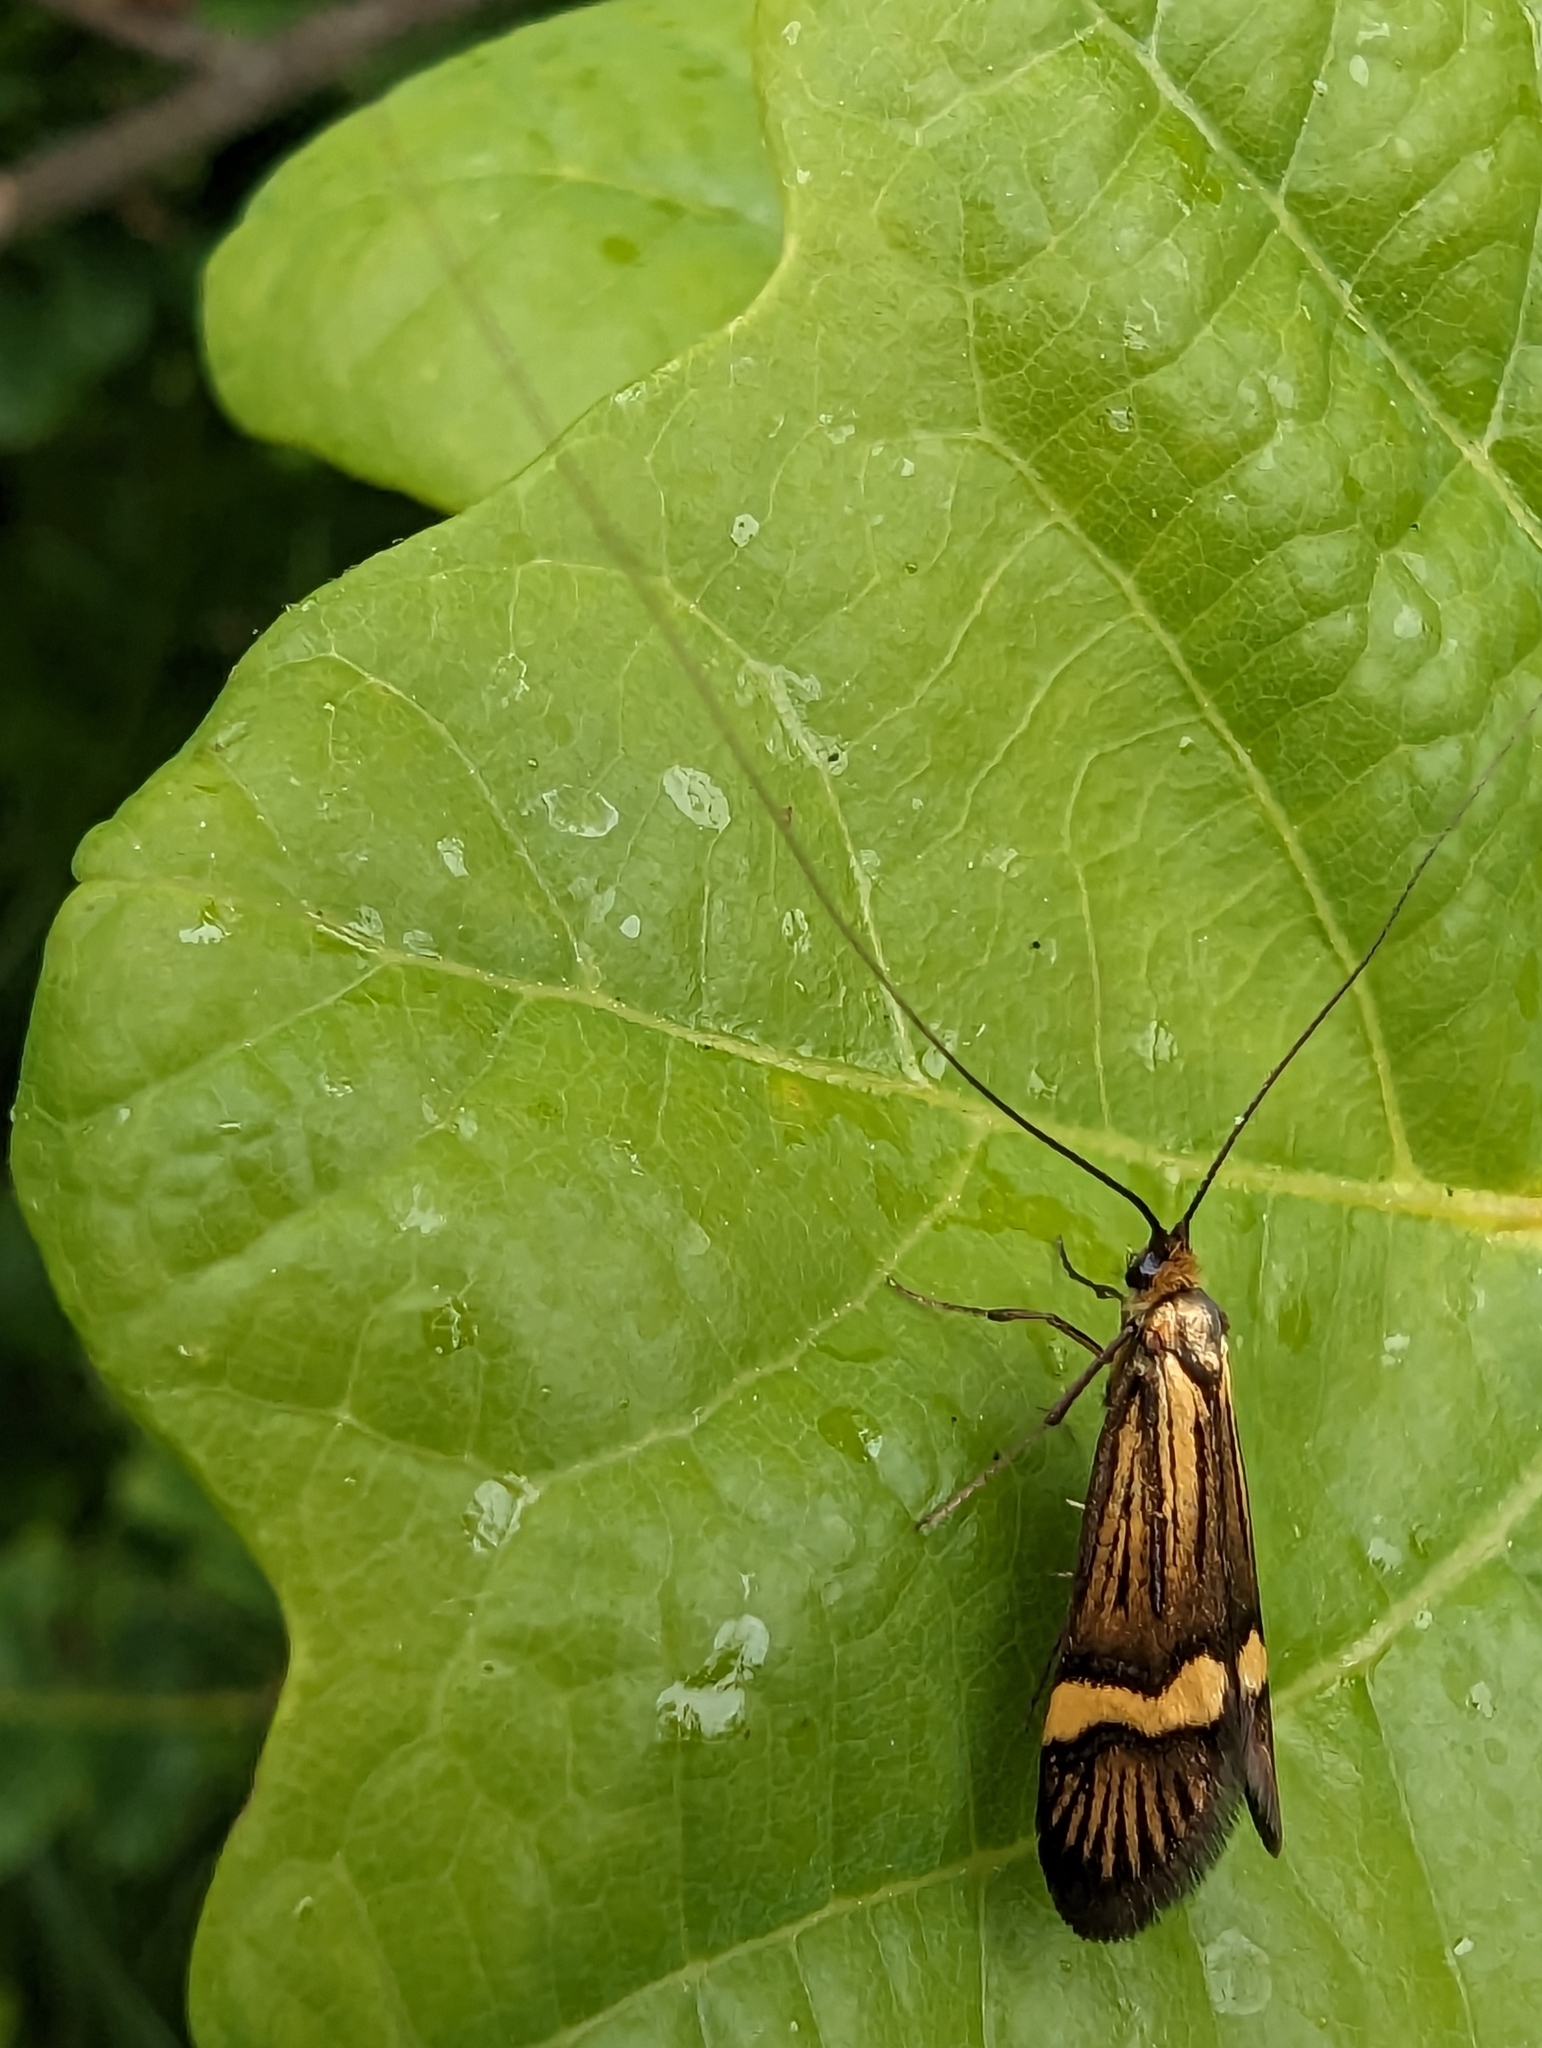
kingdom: Animalia
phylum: Arthropoda
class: Insecta
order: Lepidoptera
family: Adelidae
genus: Nemophora
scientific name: Nemophora degeerella
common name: Yellow-barred long-horn
